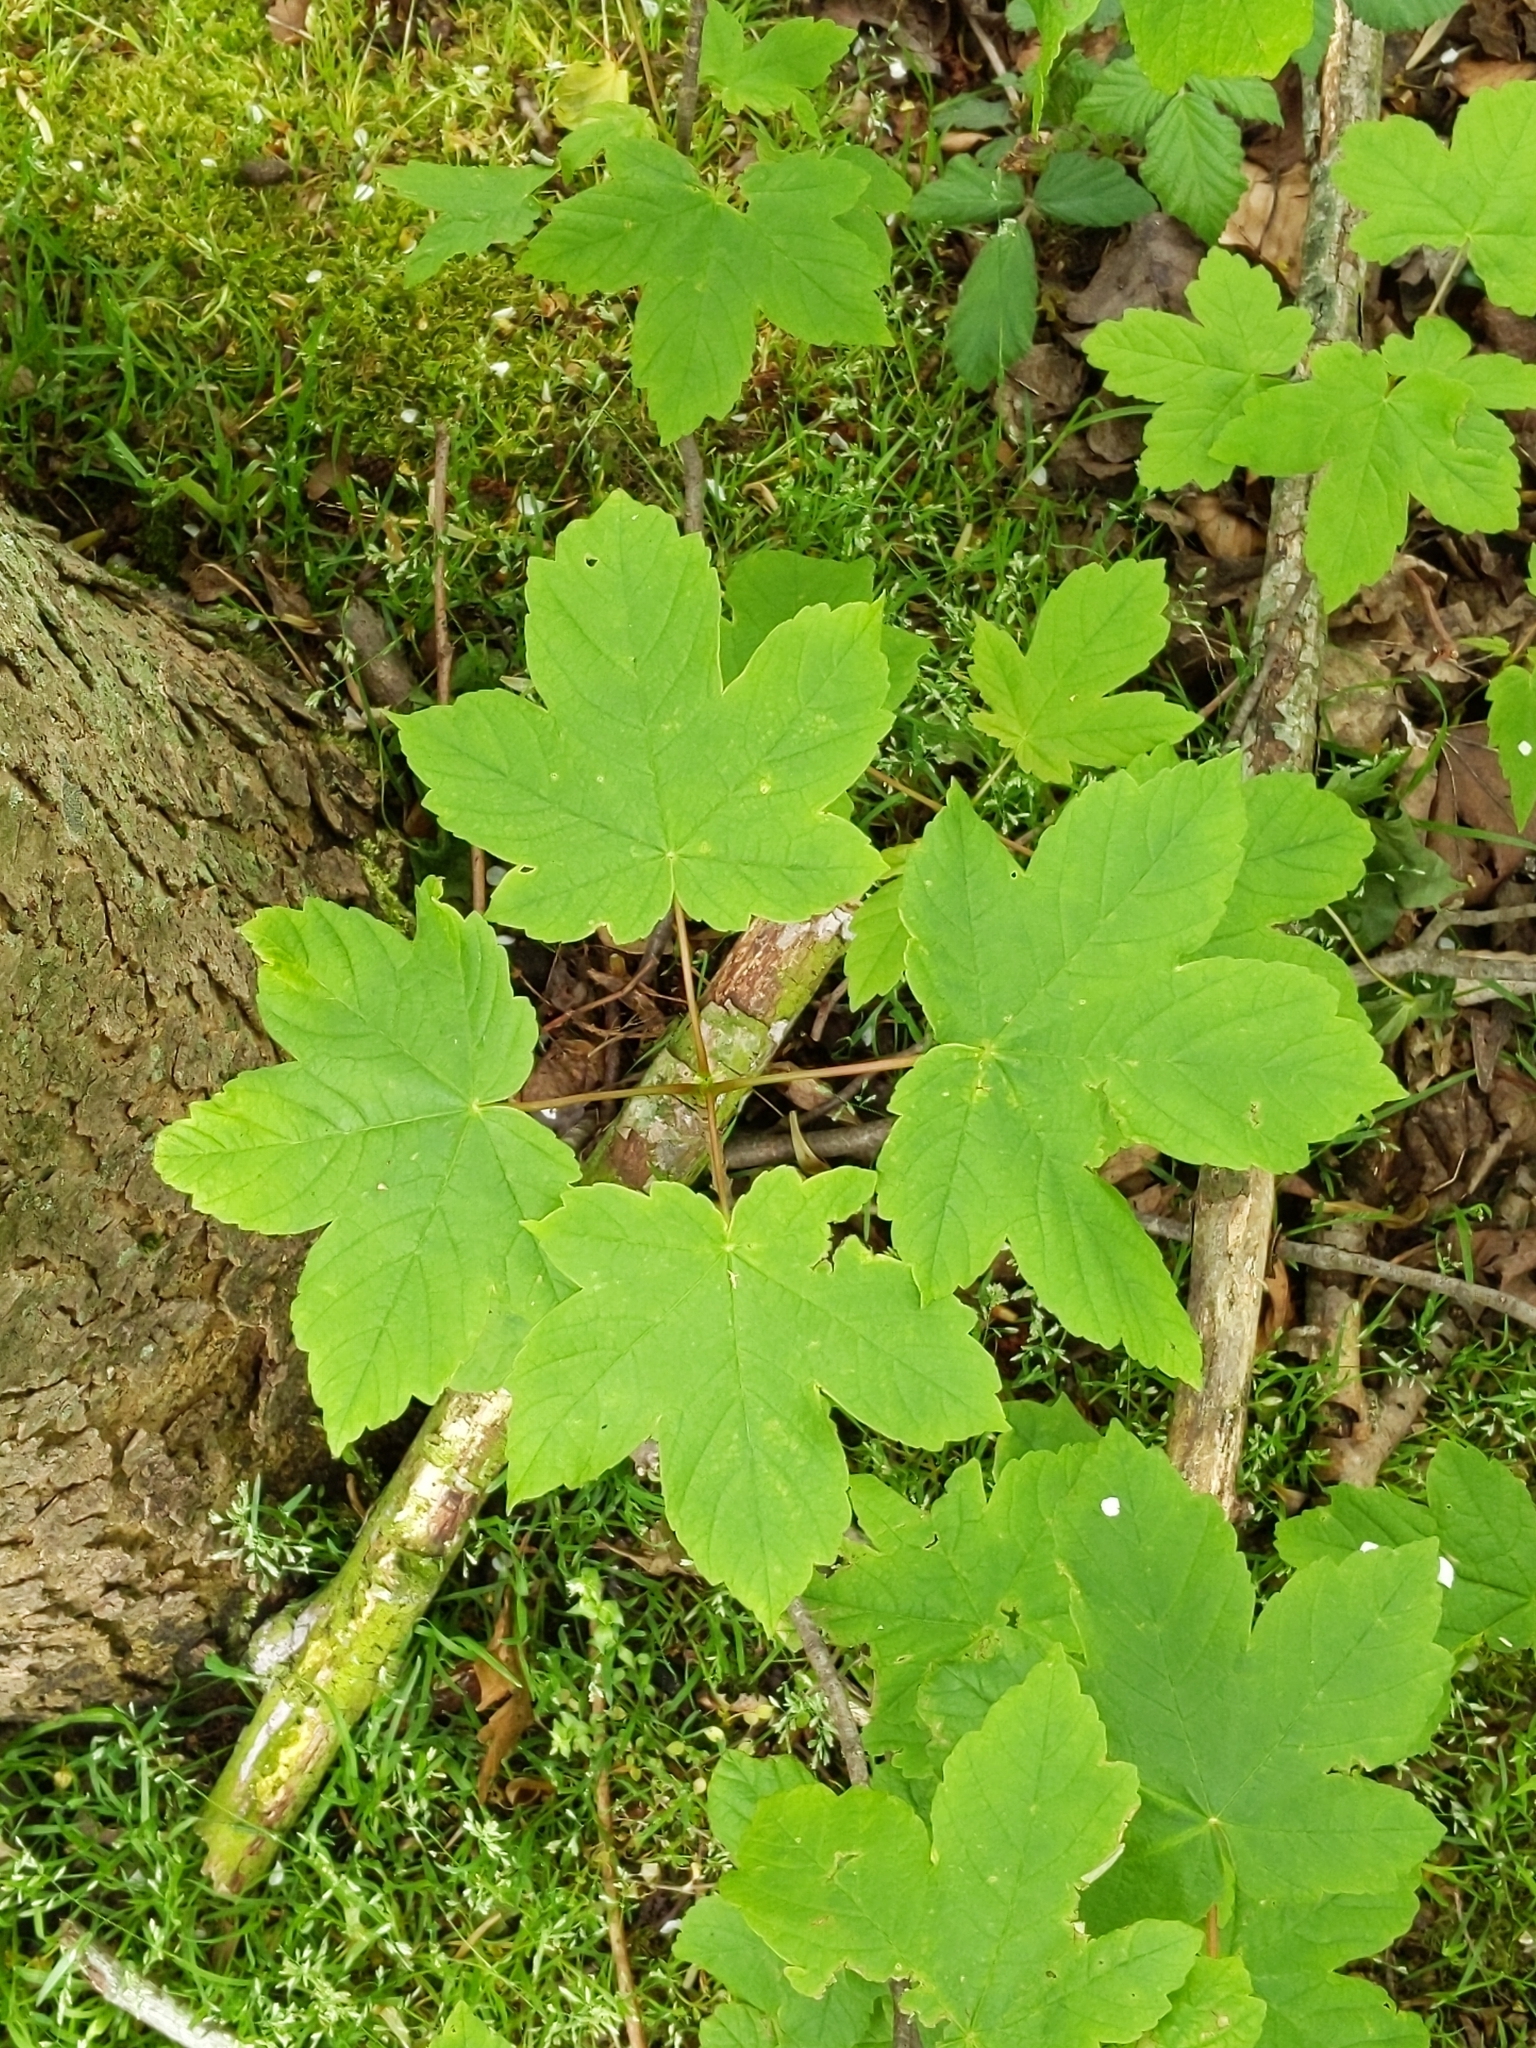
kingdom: Plantae
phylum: Tracheophyta
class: Magnoliopsida
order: Sapindales
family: Sapindaceae
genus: Acer
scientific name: Acer pseudoplatanus
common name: Sycamore
